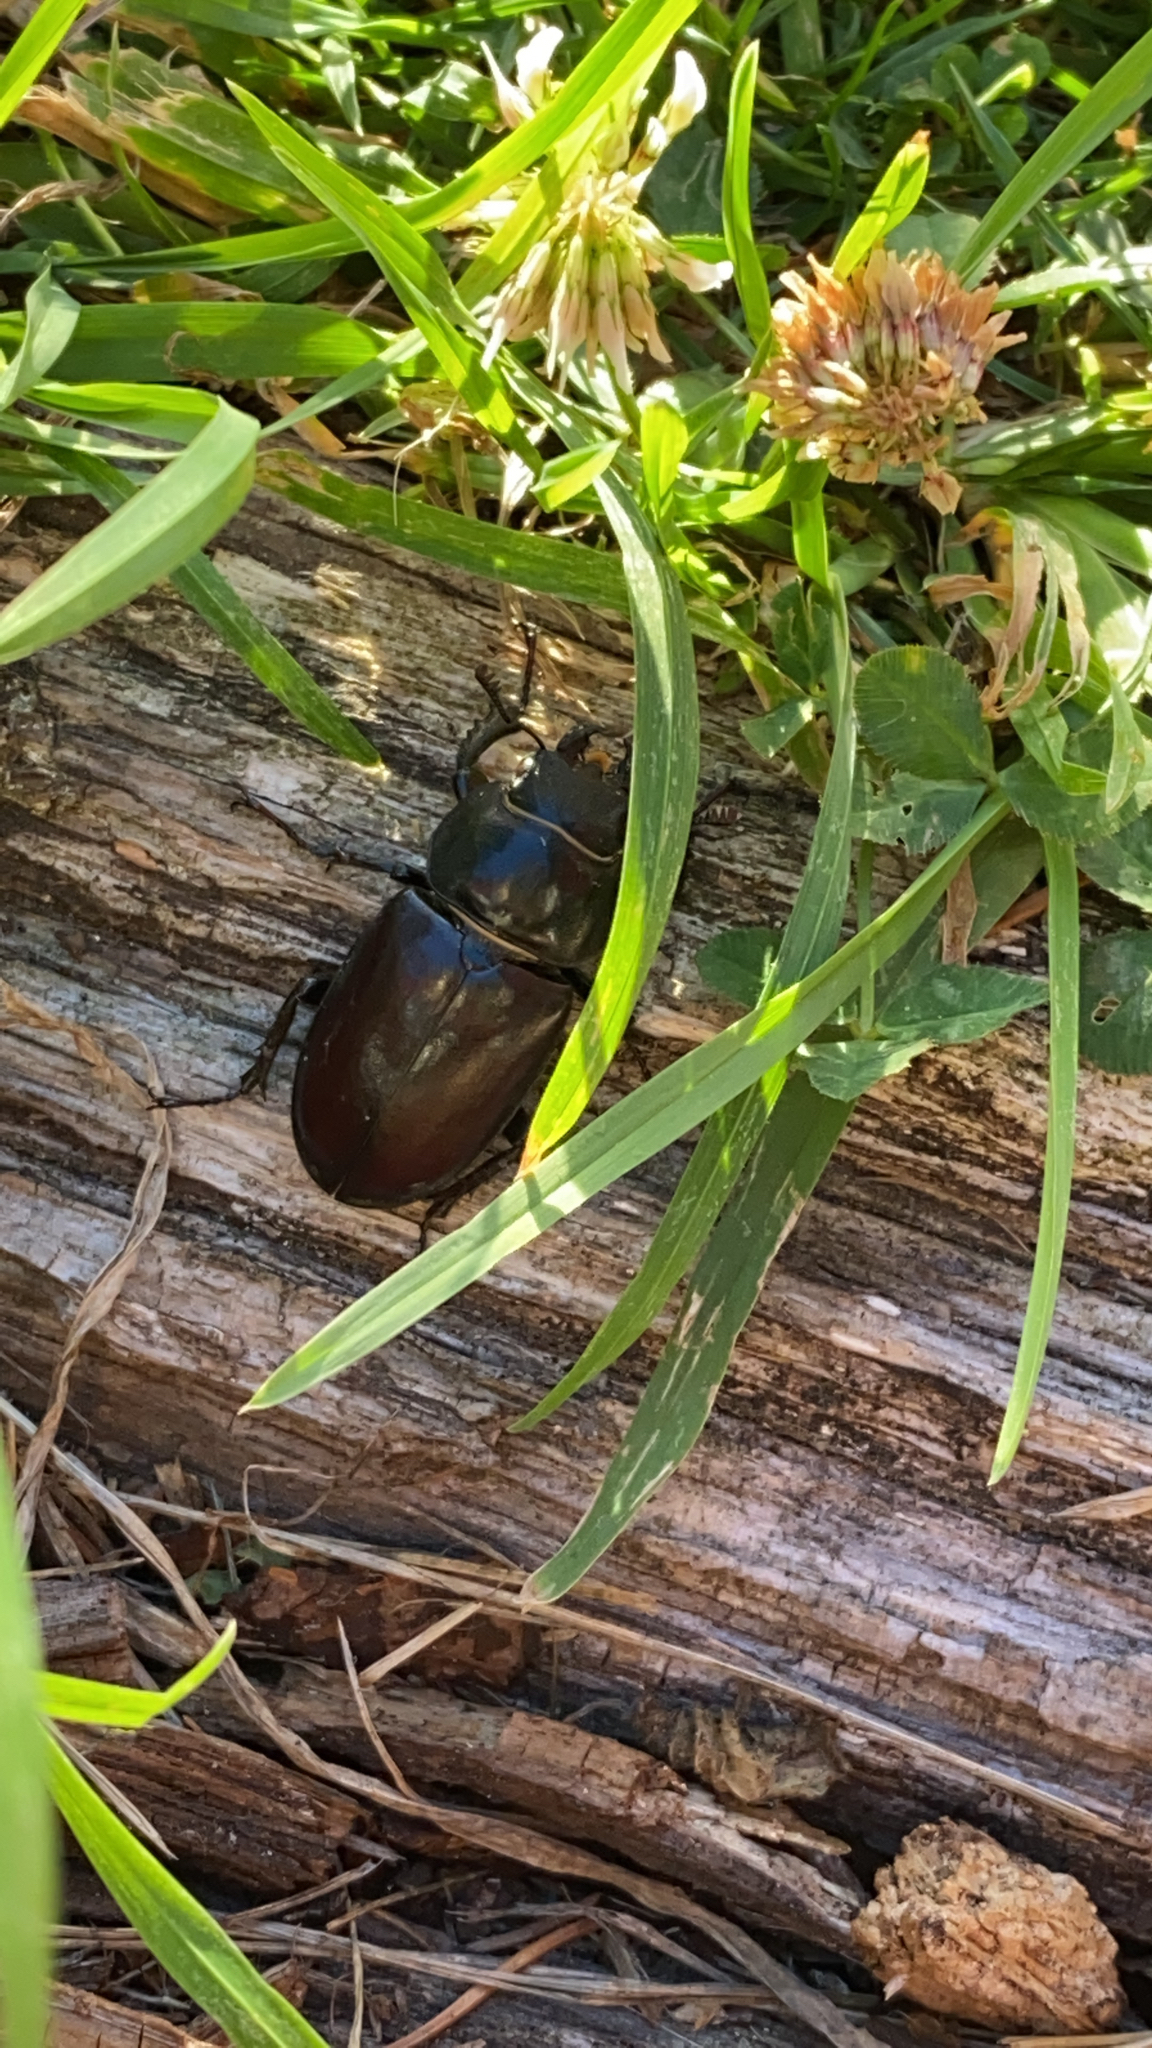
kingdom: Animalia
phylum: Arthropoda
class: Insecta
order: Coleoptera
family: Lucanidae
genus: Lucanus
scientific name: Lucanus cervus
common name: Stag beetle
